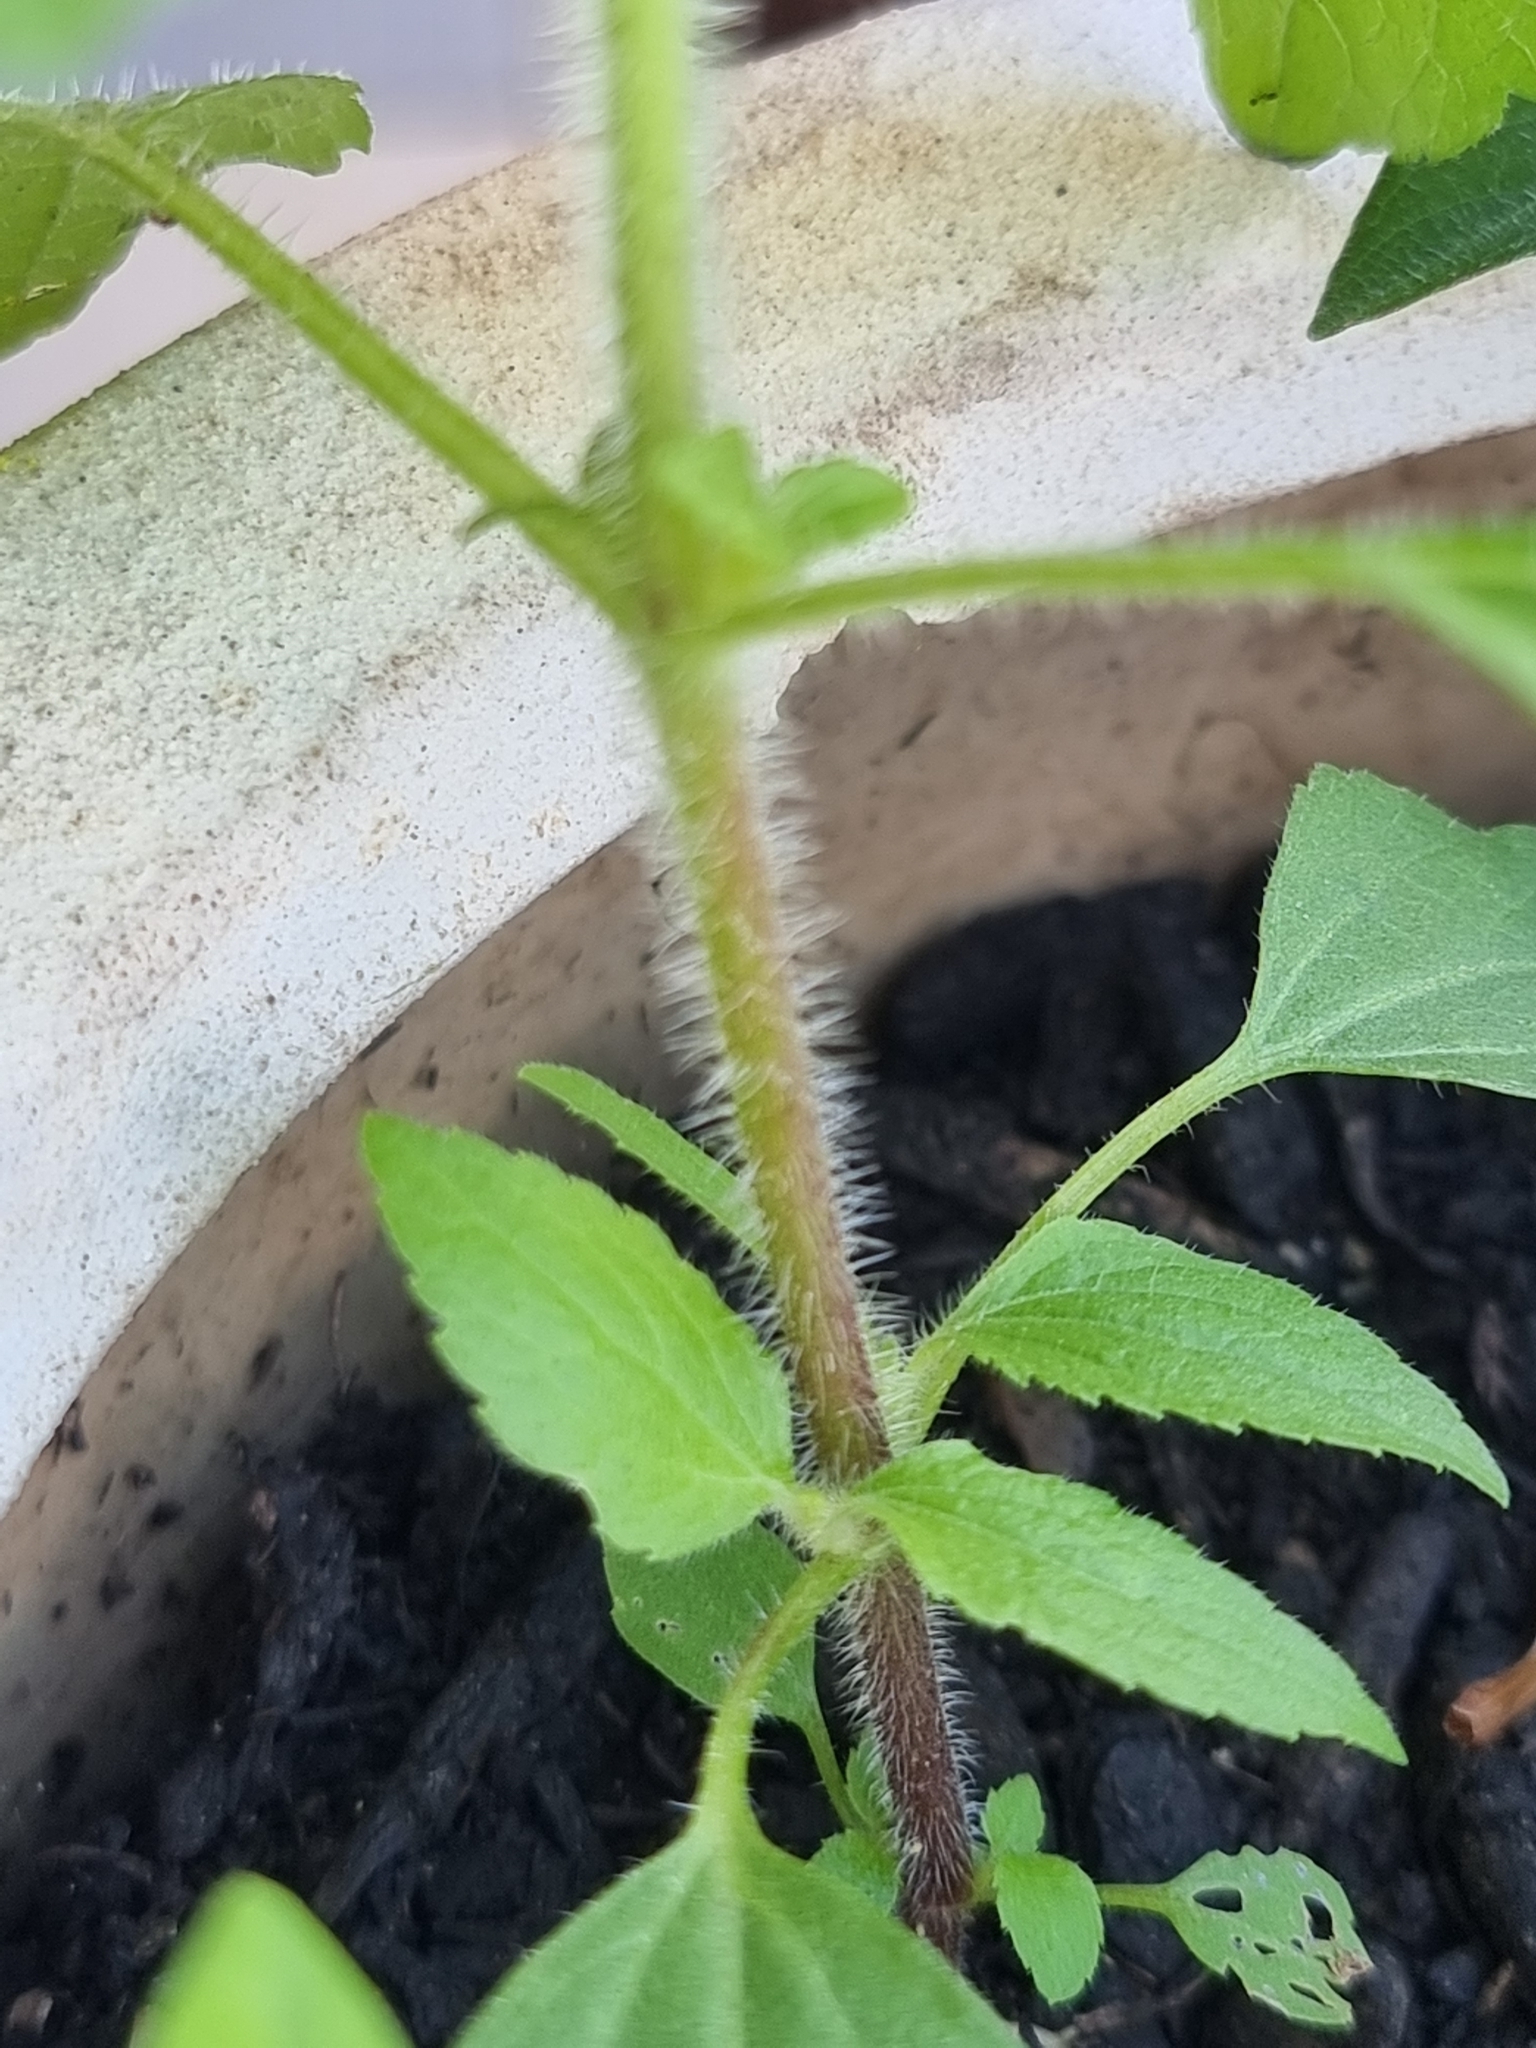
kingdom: Plantae
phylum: Tracheophyta
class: Magnoliopsida
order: Asterales
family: Asteraceae
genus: Ageratum
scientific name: Ageratum conyzoides
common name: Tropical whiteweed
